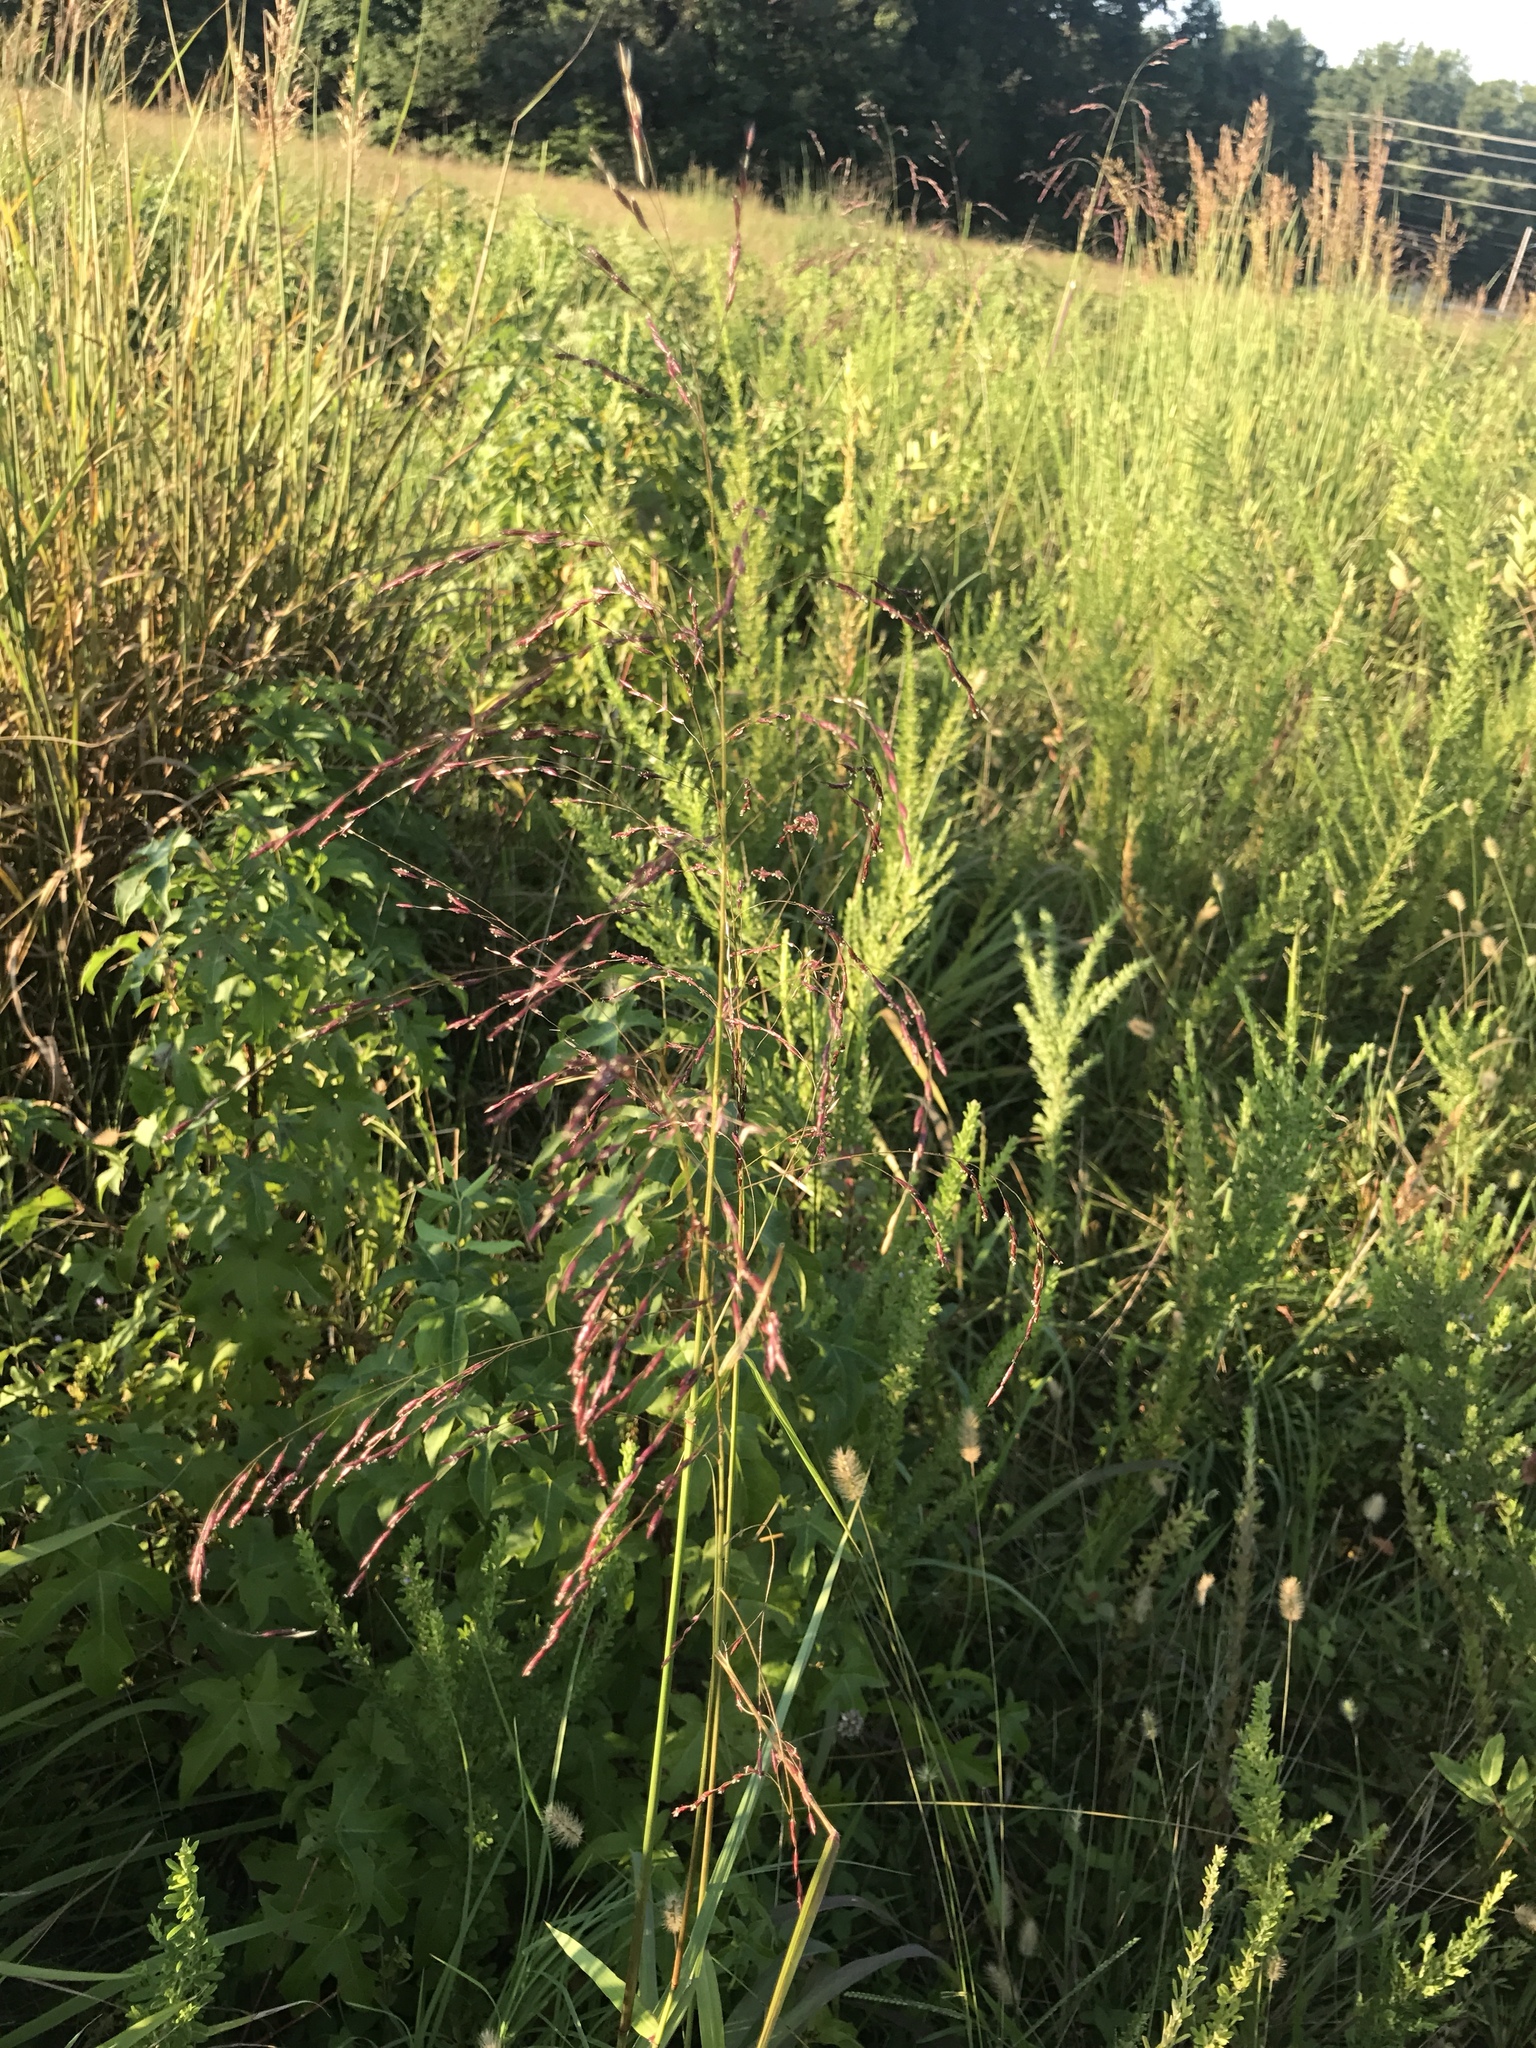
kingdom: Plantae
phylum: Tracheophyta
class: Liliopsida
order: Poales
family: Poaceae
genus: Tridens
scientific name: Tridens flavus
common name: Purpletop
